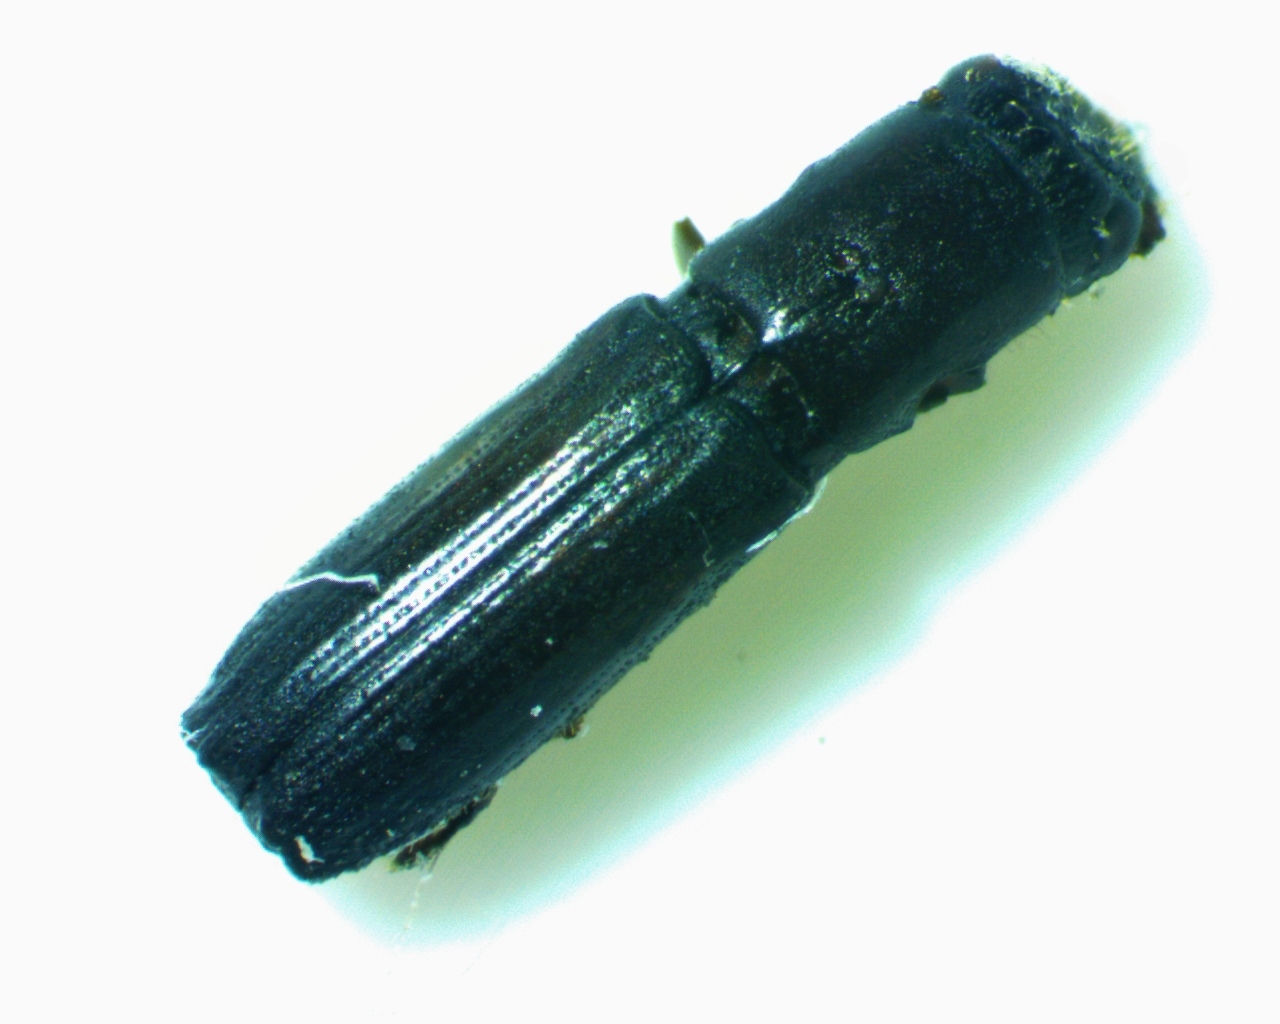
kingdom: Animalia
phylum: Arthropoda
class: Insecta
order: Coleoptera
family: Curculionidae
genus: Oxoplatypus
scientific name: Oxoplatypus quadridentatus
